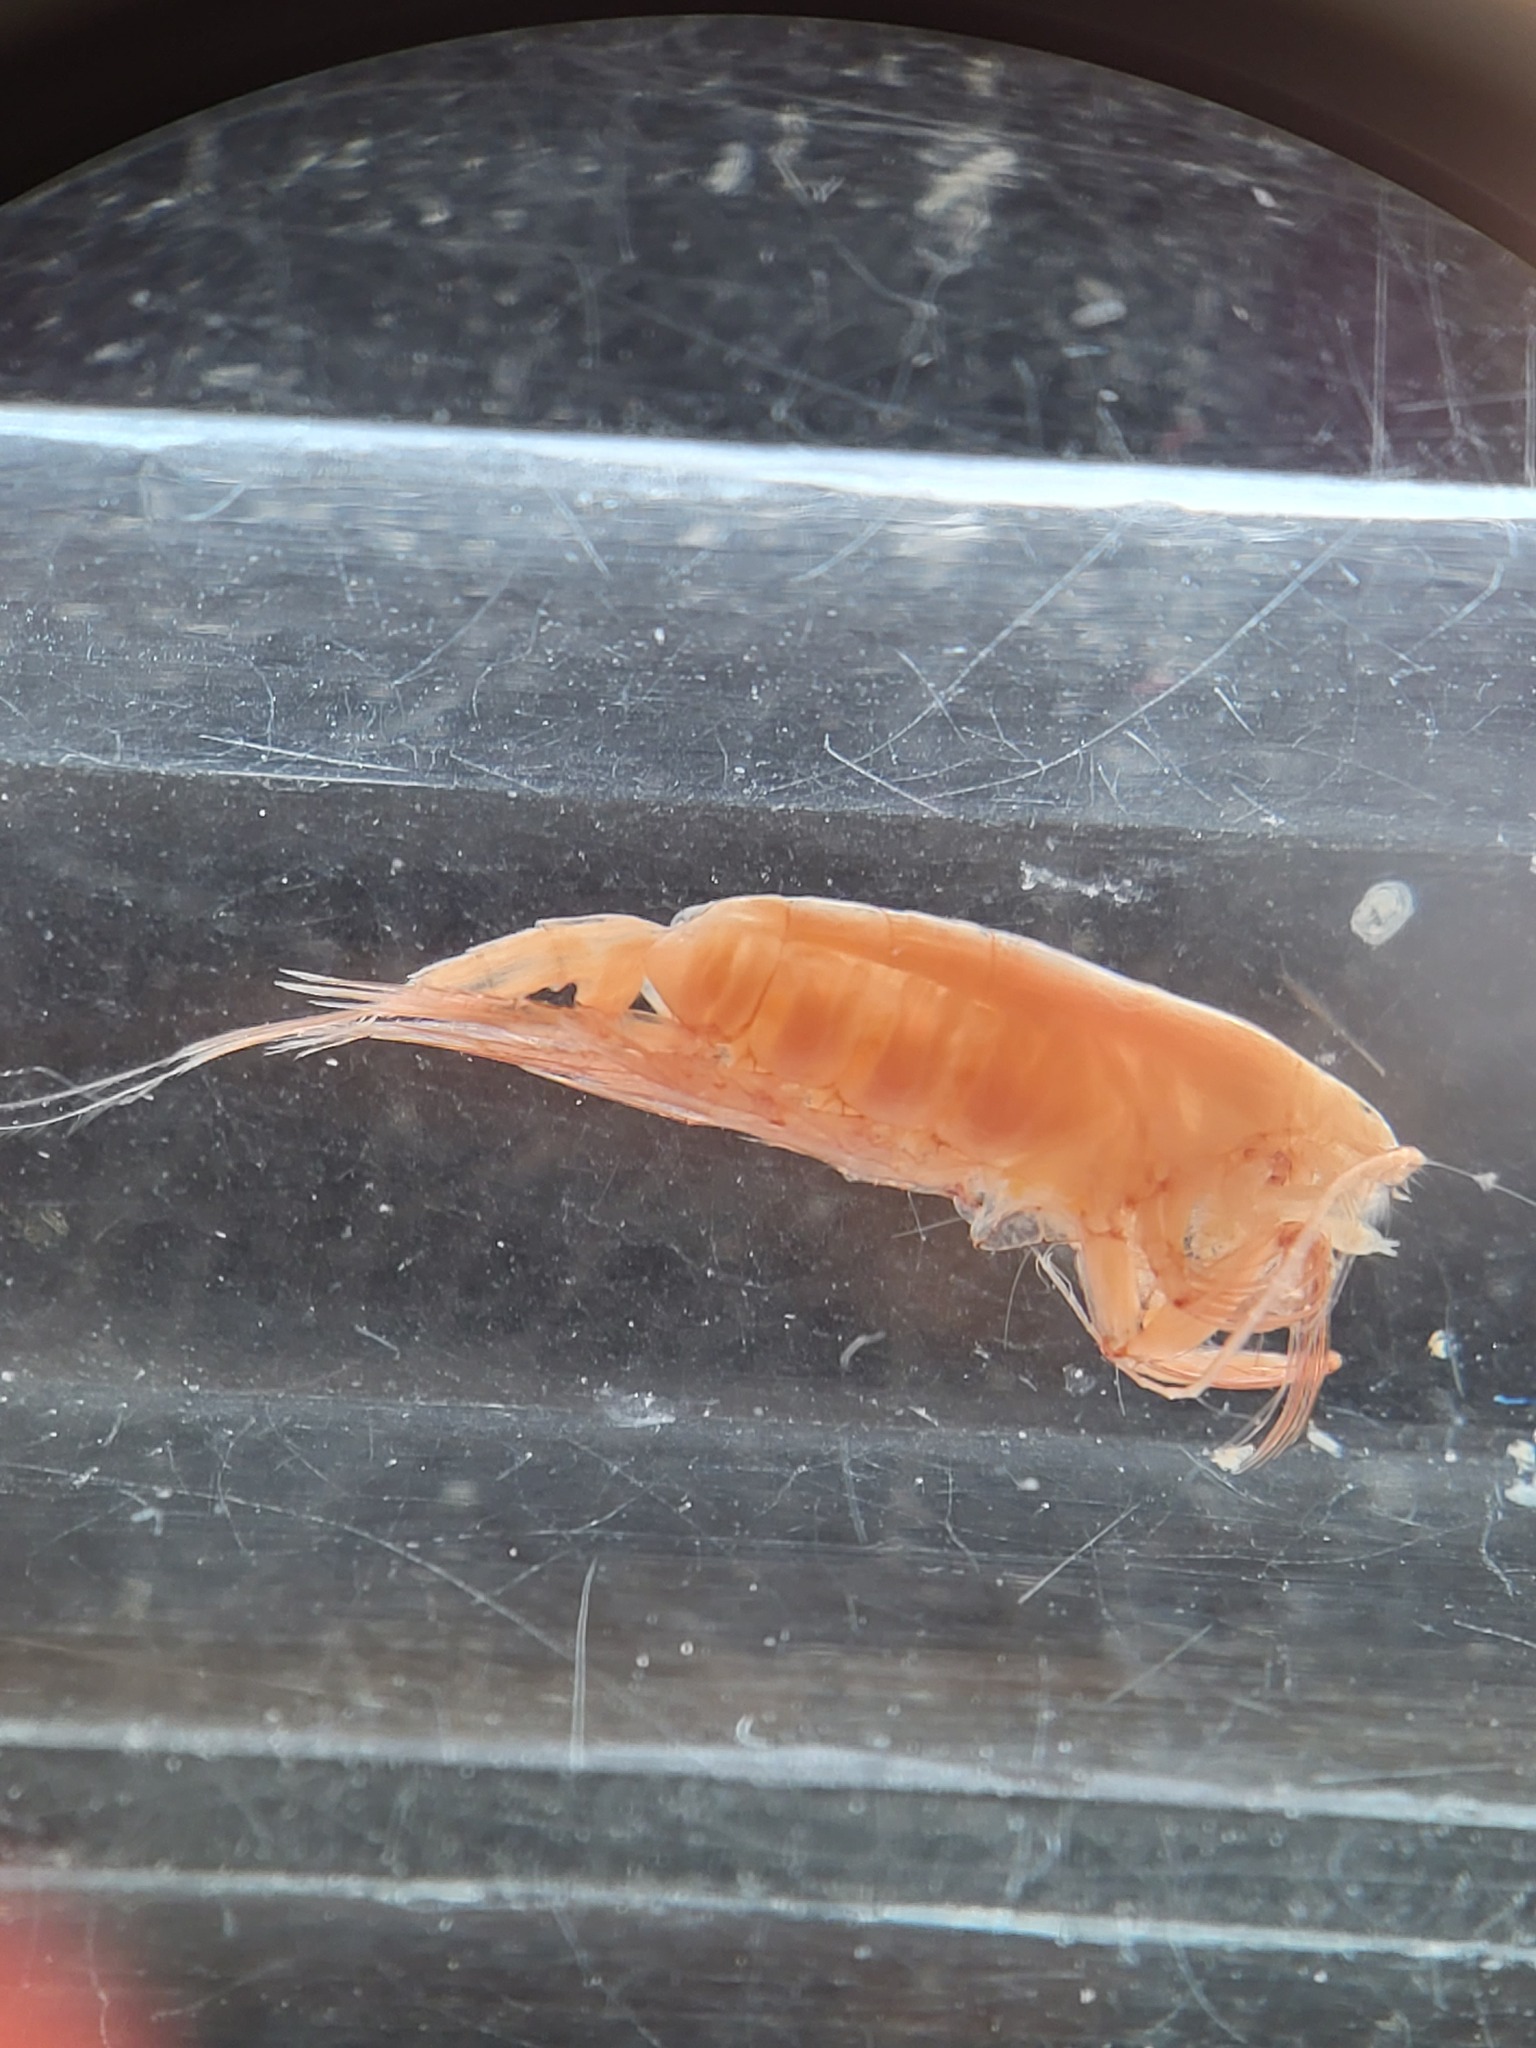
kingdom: Animalia
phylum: Arthropoda
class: Copepoda
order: Calanoida
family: Euchaetidae
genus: Paraeuchaeta
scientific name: Paraeuchaeta glacialis
